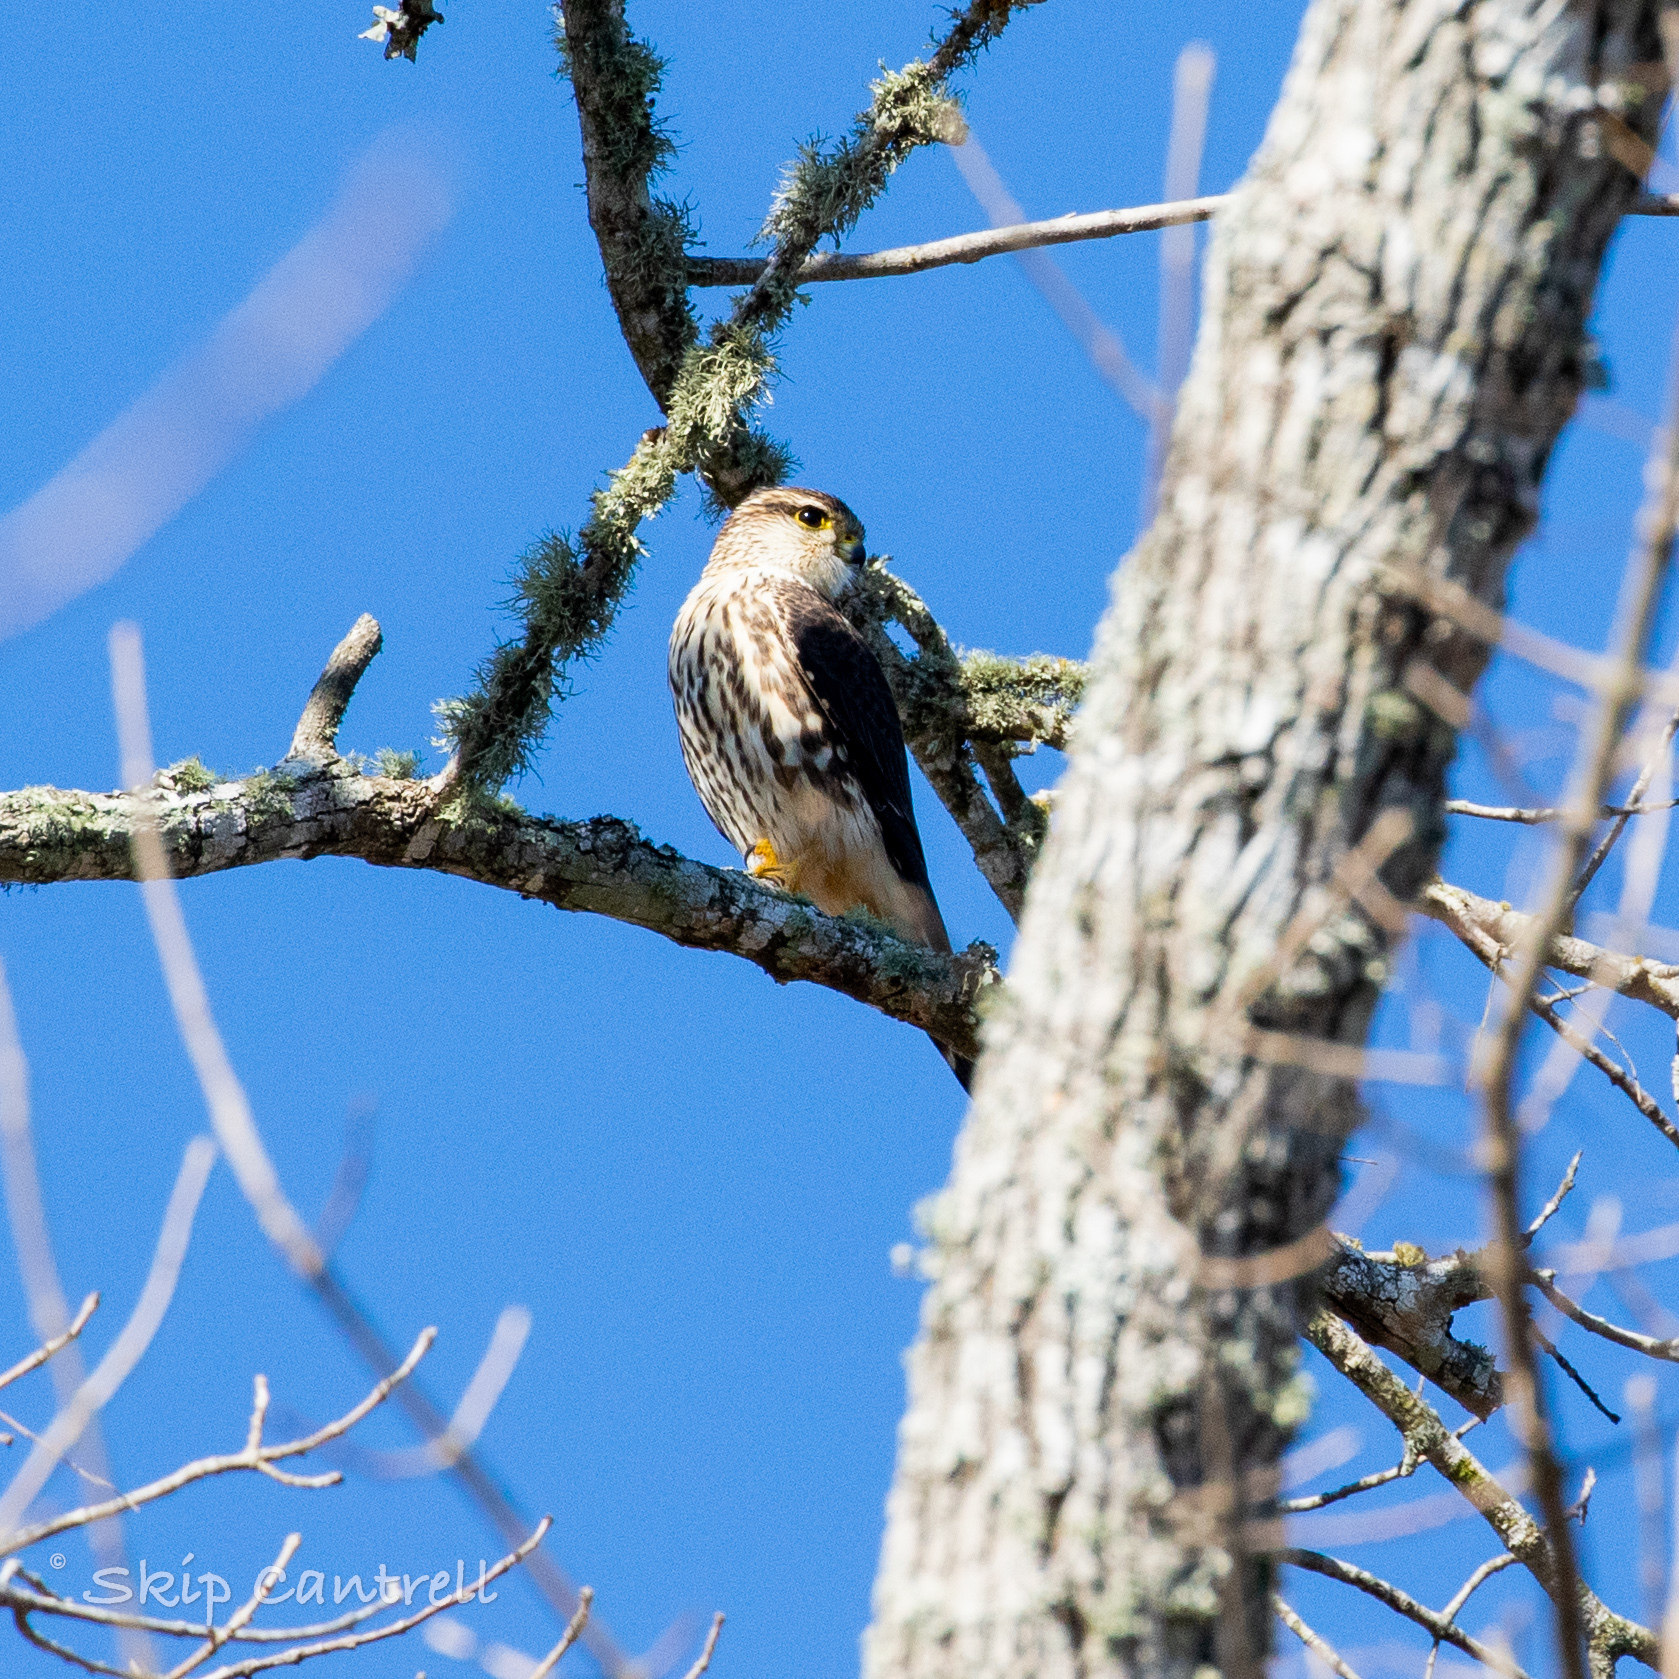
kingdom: Animalia
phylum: Chordata
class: Aves
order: Falconiformes
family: Falconidae
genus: Falco
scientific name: Falco columbarius
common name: Merlin
